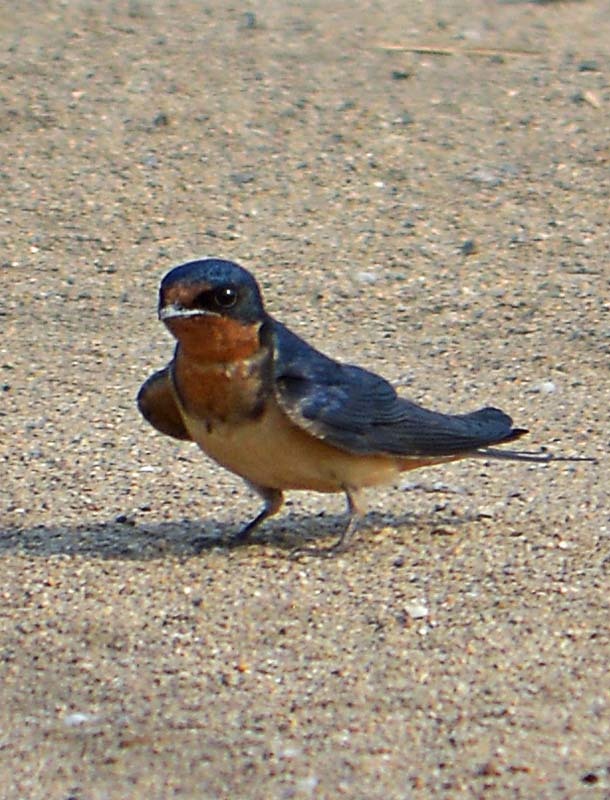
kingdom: Animalia
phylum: Chordata
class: Aves
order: Passeriformes
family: Hirundinidae
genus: Hirundo
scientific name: Hirundo rustica
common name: Barn swallow
